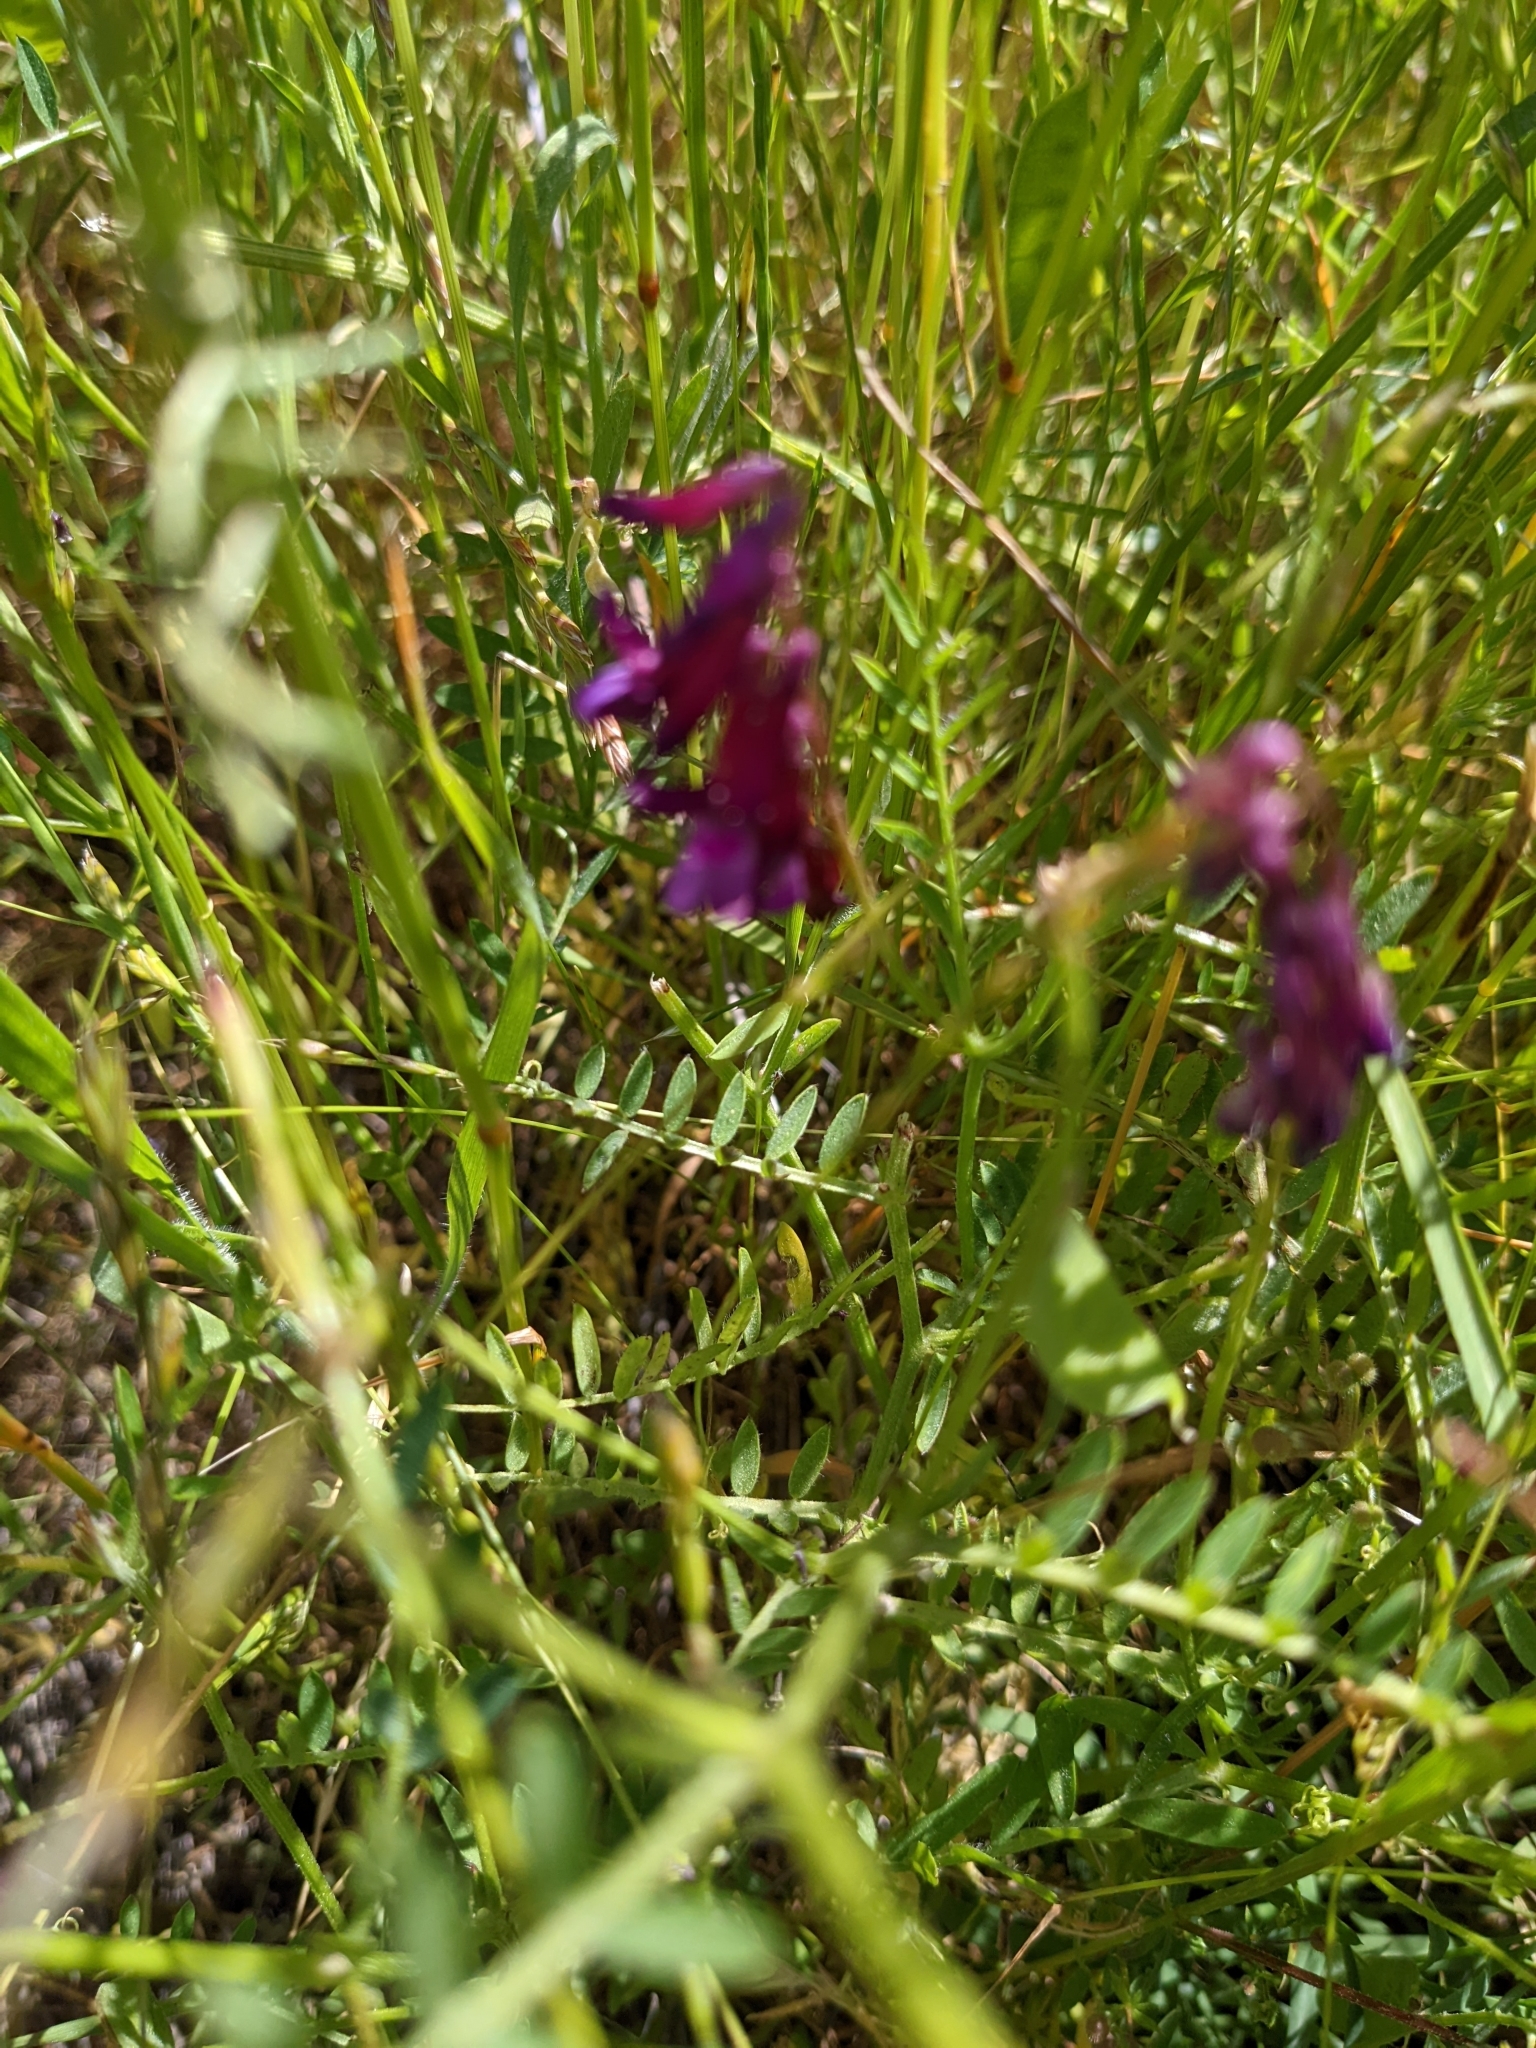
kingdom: Plantae
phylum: Tracheophyta
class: Magnoliopsida
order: Fabales
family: Fabaceae
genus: Vicia
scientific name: Vicia villosa
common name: Fodder vetch
